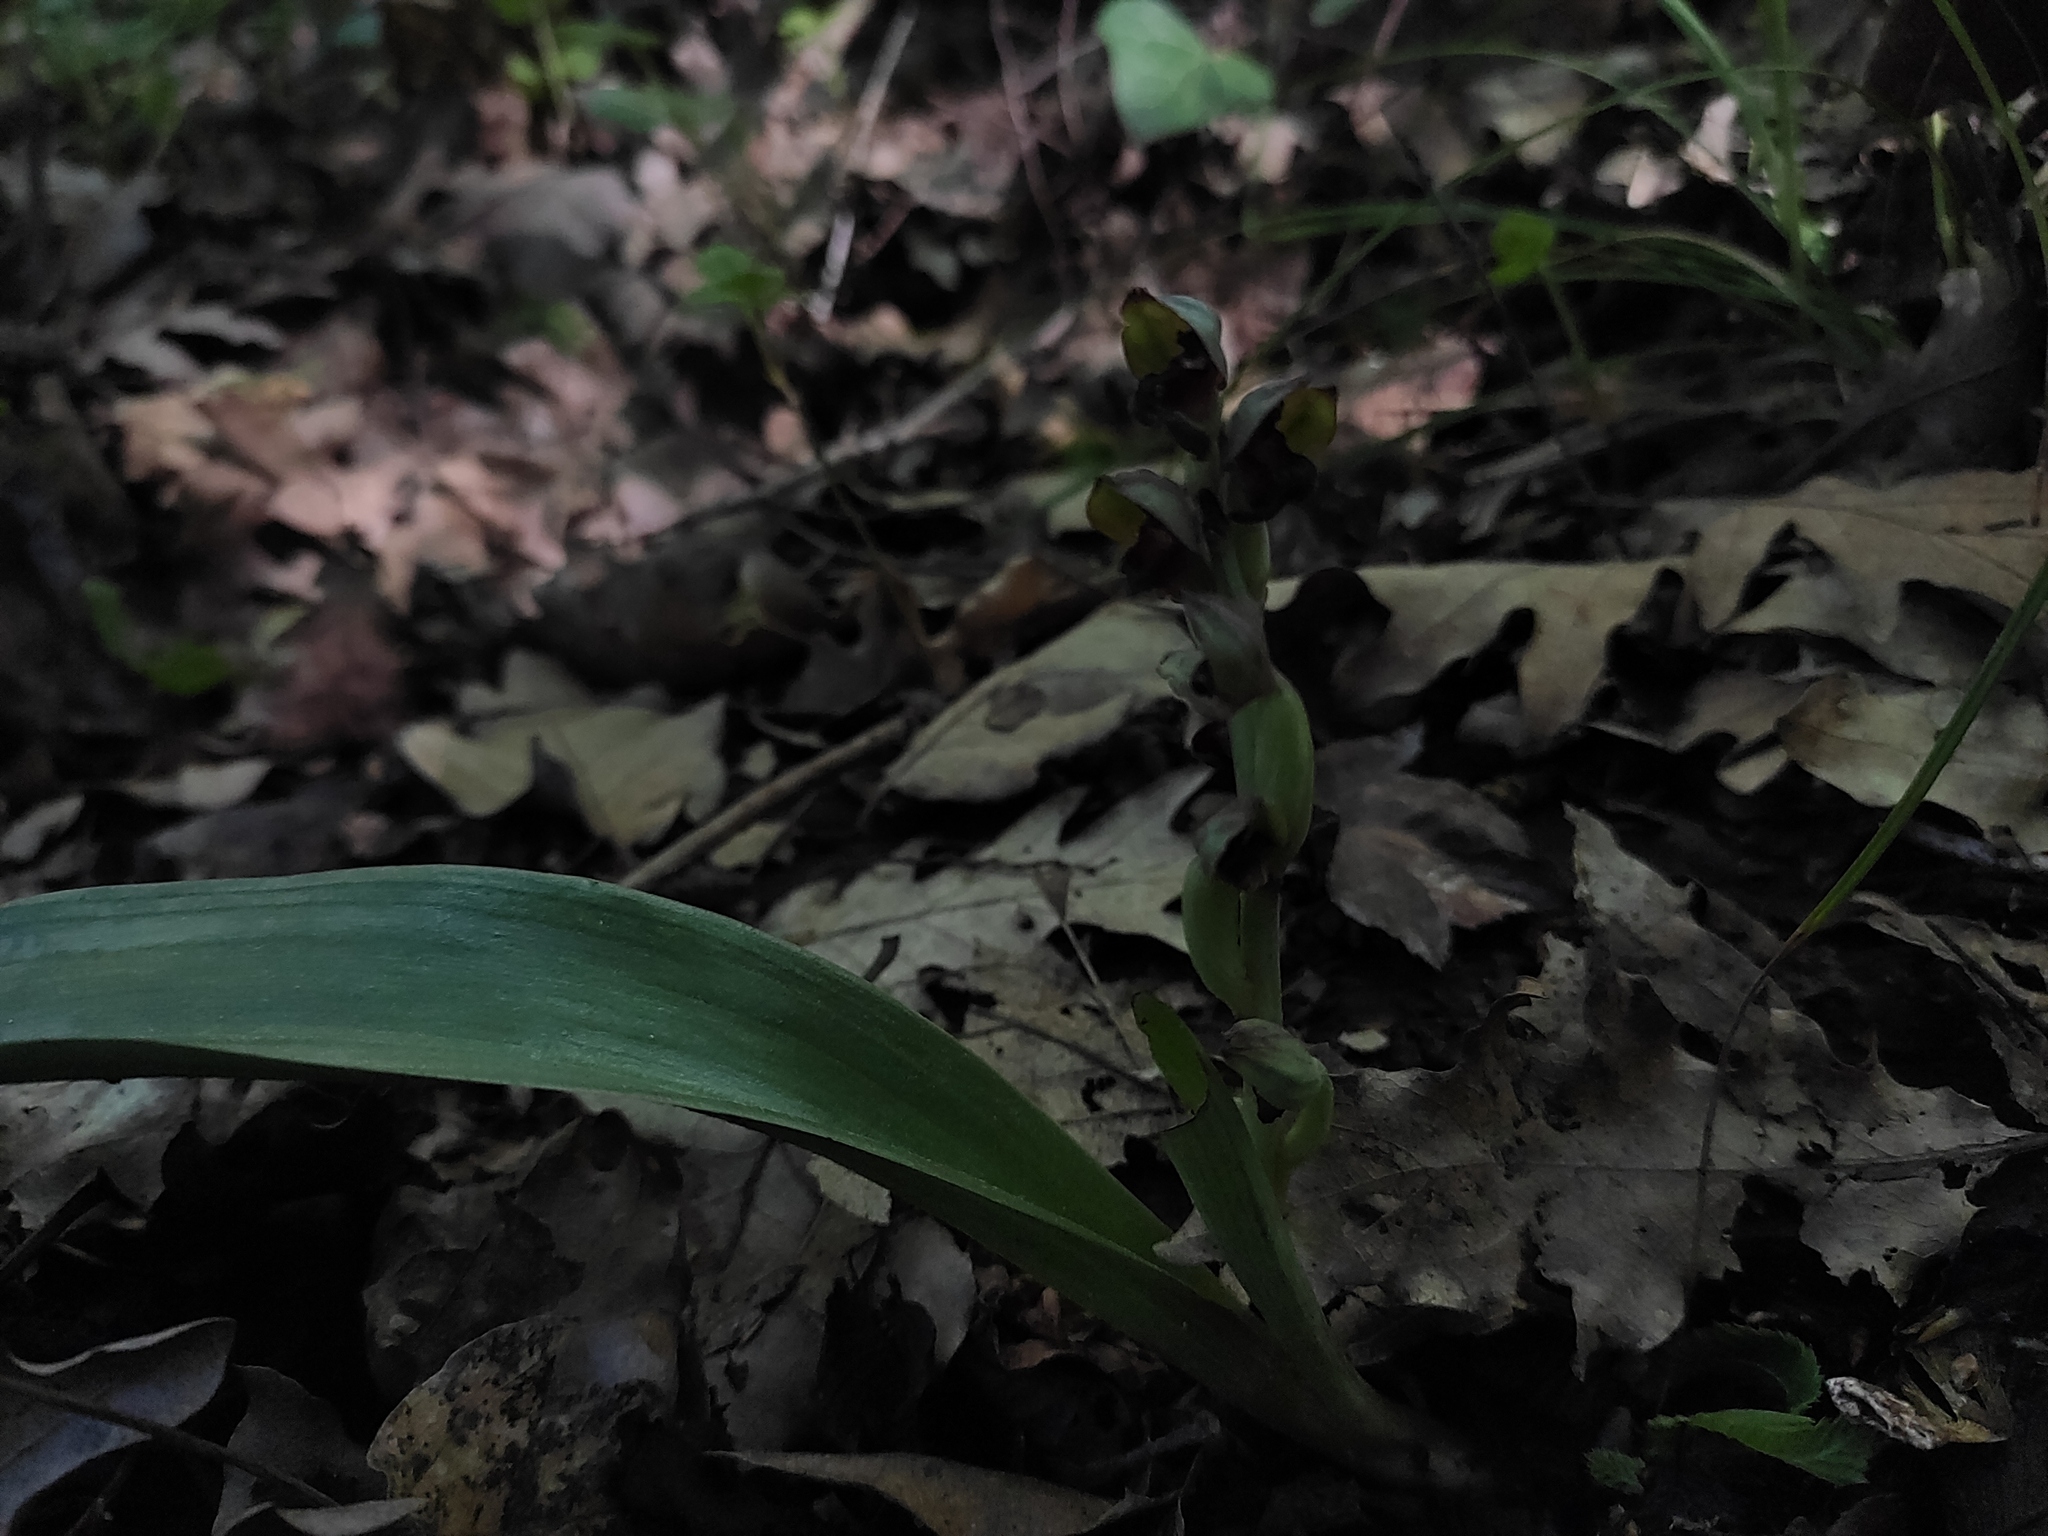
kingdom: Plantae
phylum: Tracheophyta
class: Liliopsida
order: Asparagales
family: Orchidaceae
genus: Steveniella
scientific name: Steveniella satyrioides
